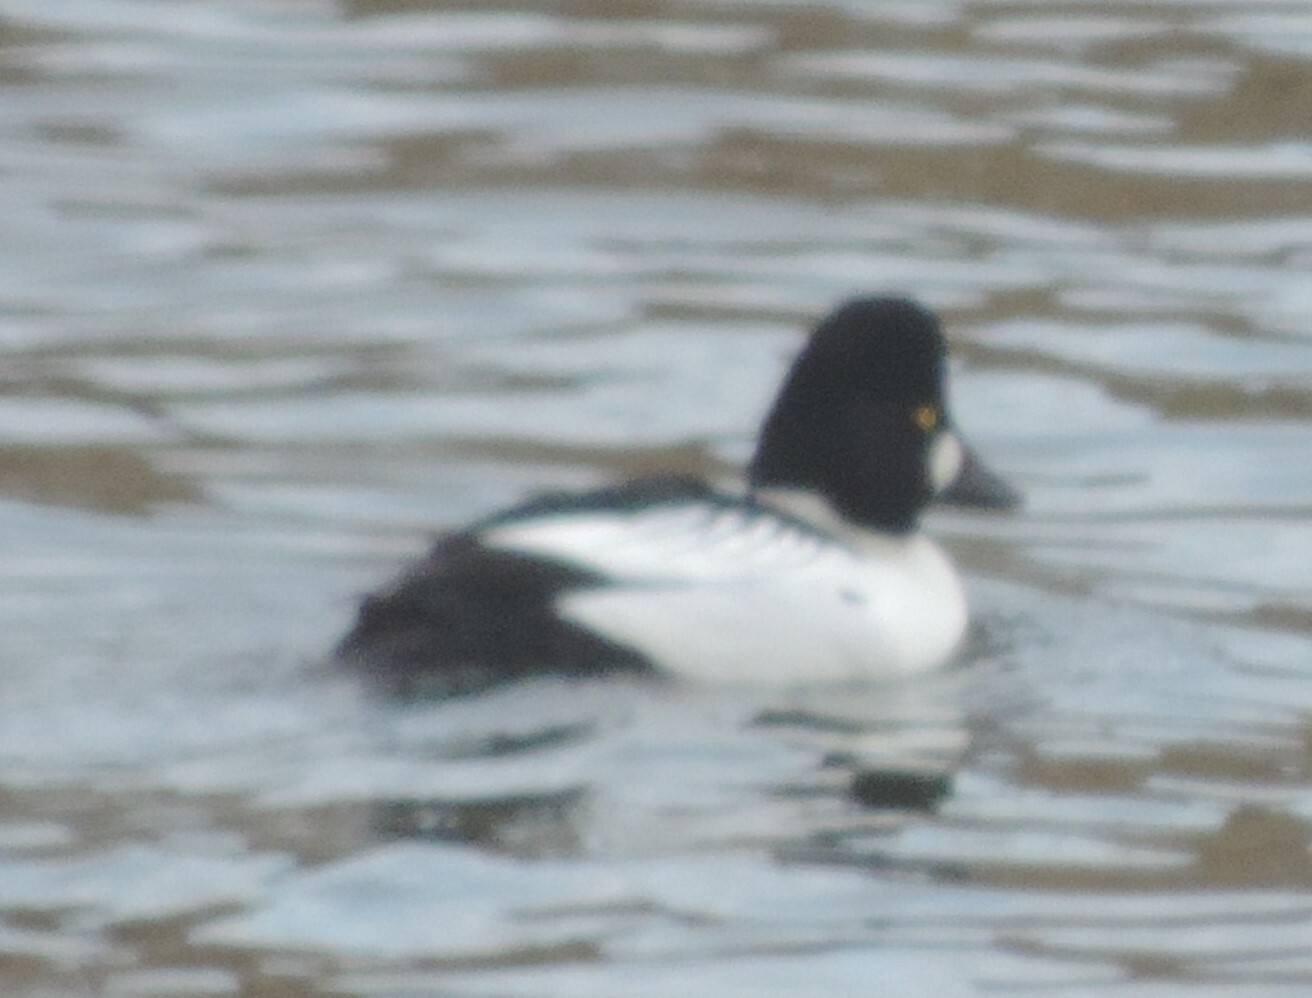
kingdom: Animalia
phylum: Chordata
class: Aves
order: Anseriformes
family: Anatidae
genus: Bucephala
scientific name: Bucephala clangula
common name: Common goldeneye
